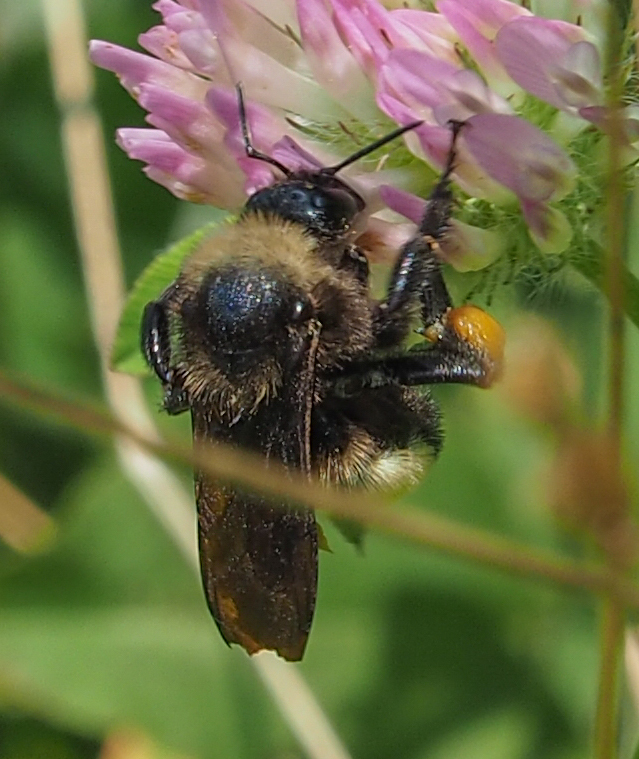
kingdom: Animalia
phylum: Arthropoda
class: Insecta
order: Hymenoptera
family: Apidae
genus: Bombus
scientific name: Bombus pensylvanicus
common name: Bumble bee
